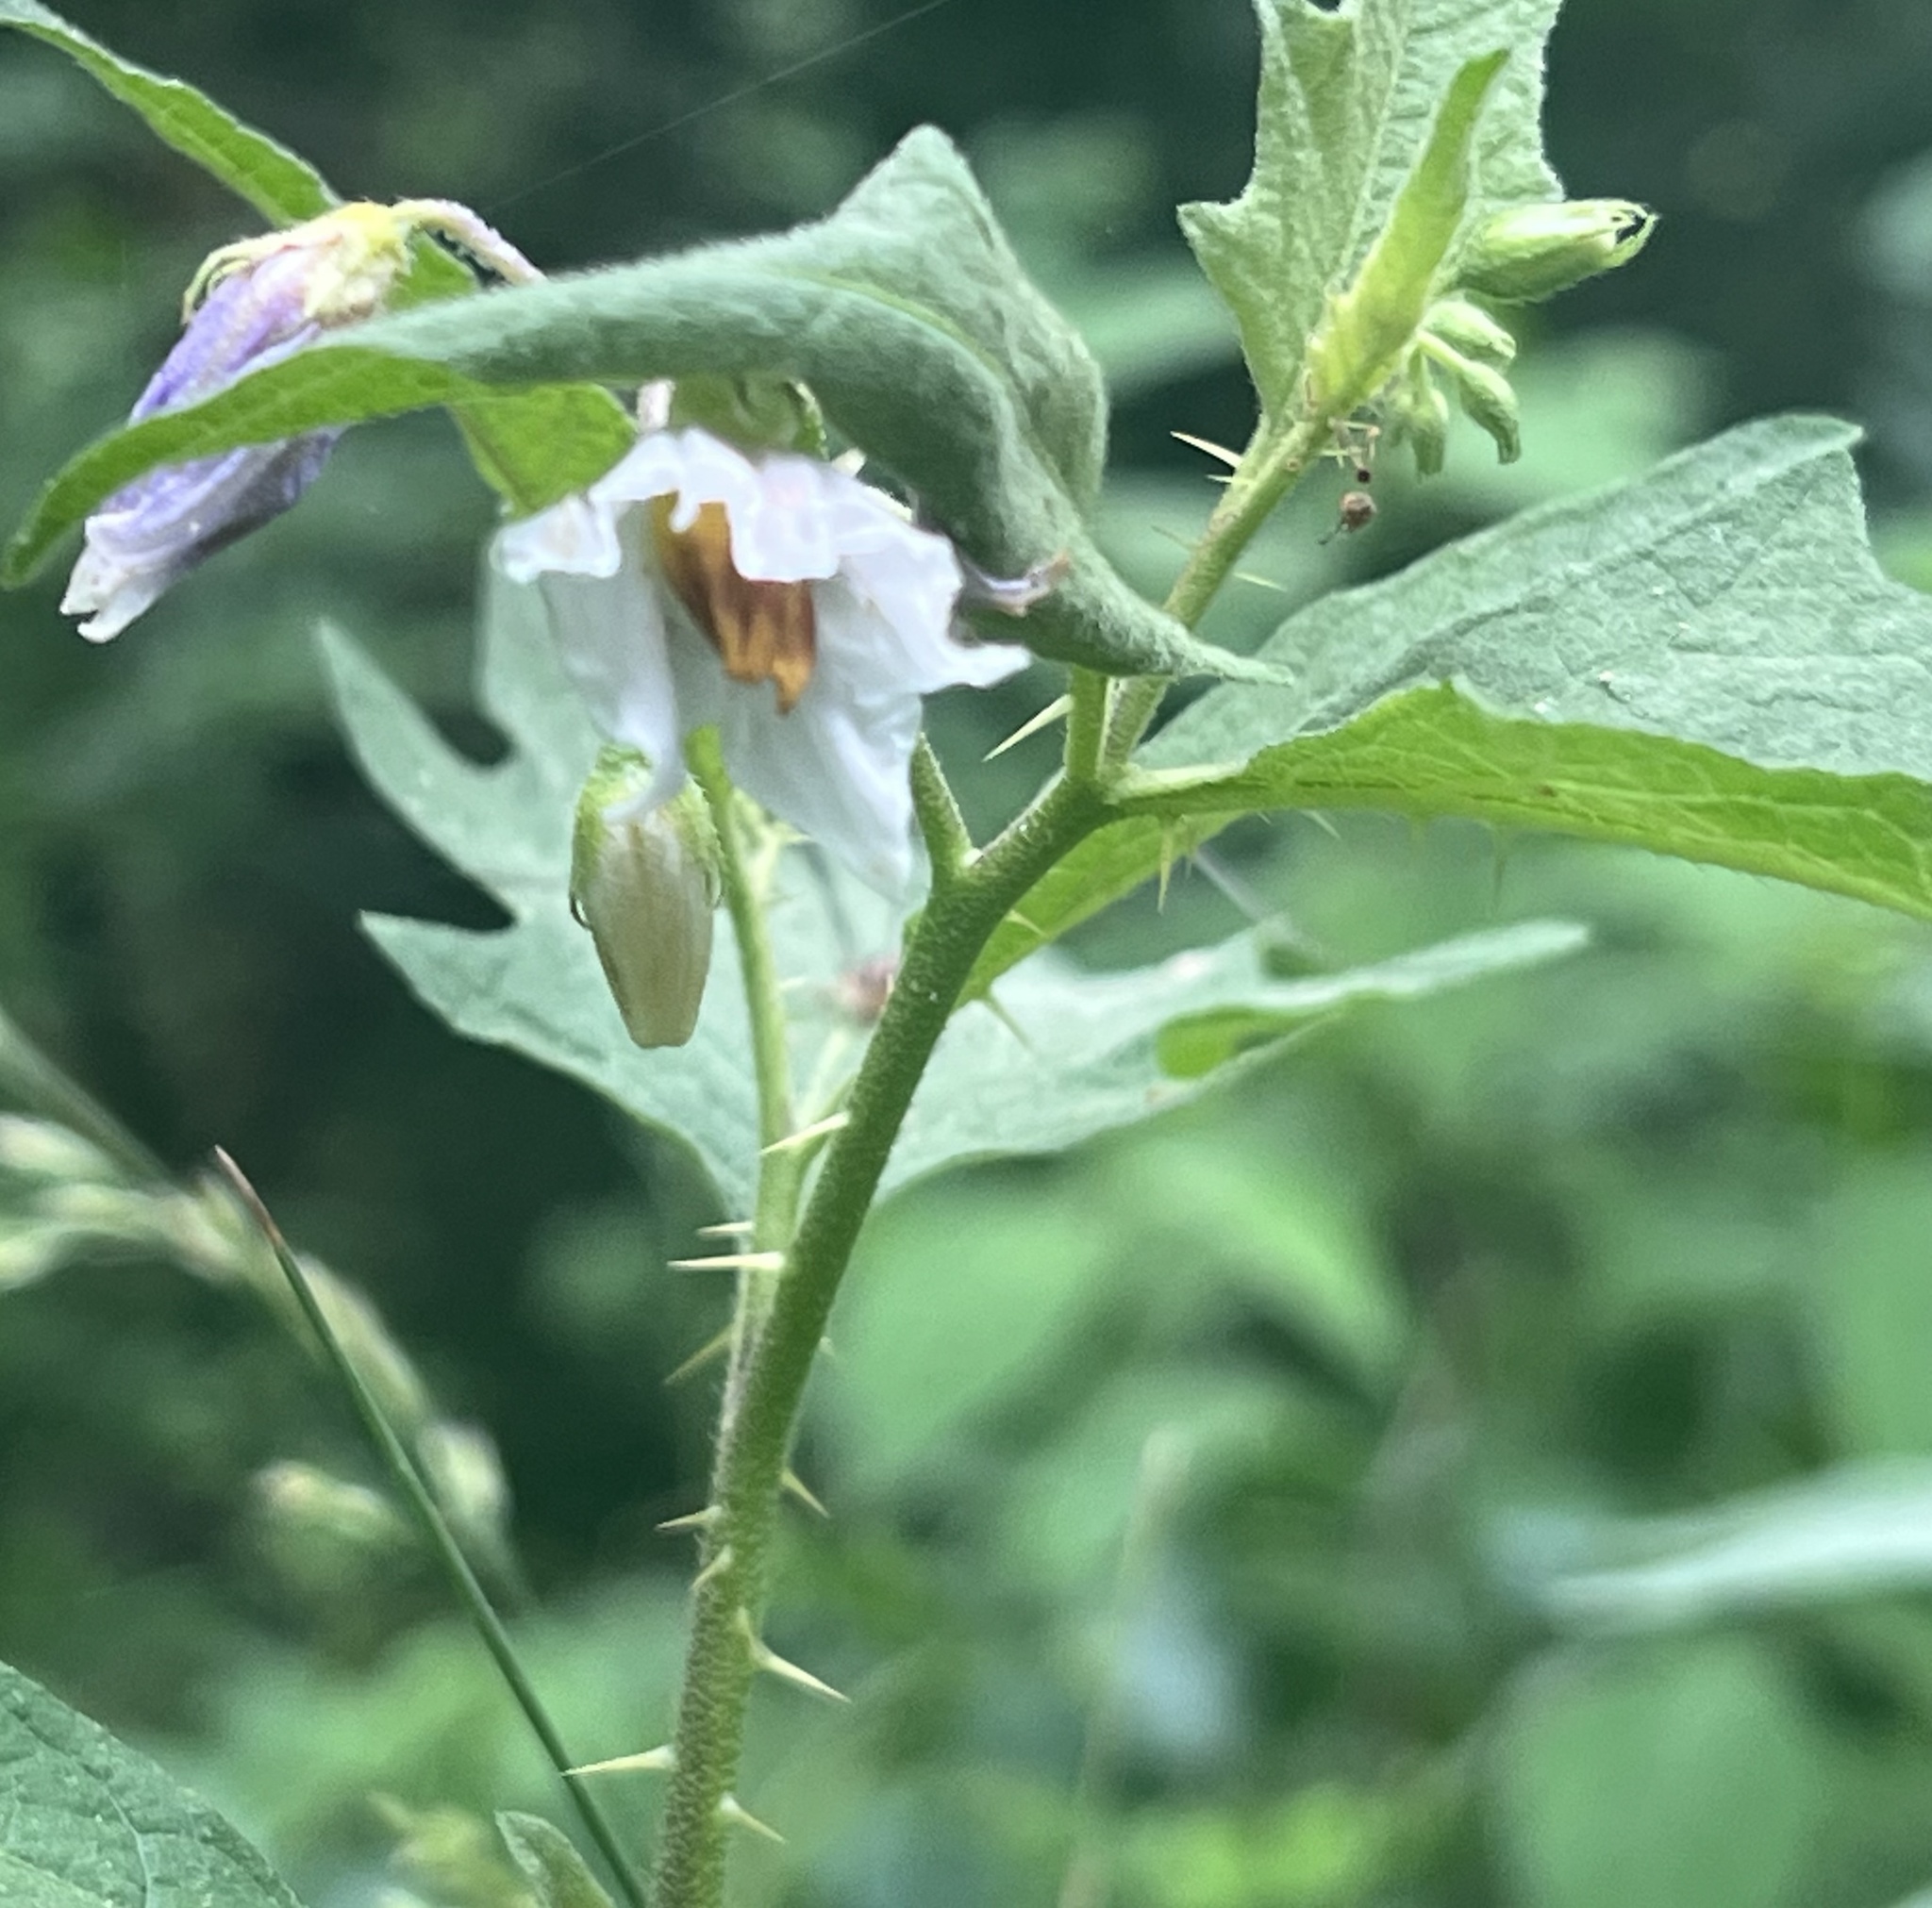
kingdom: Plantae
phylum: Tracheophyta
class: Magnoliopsida
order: Solanales
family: Solanaceae
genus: Solanum
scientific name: Solanum carolinense
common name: Horse-nettle
